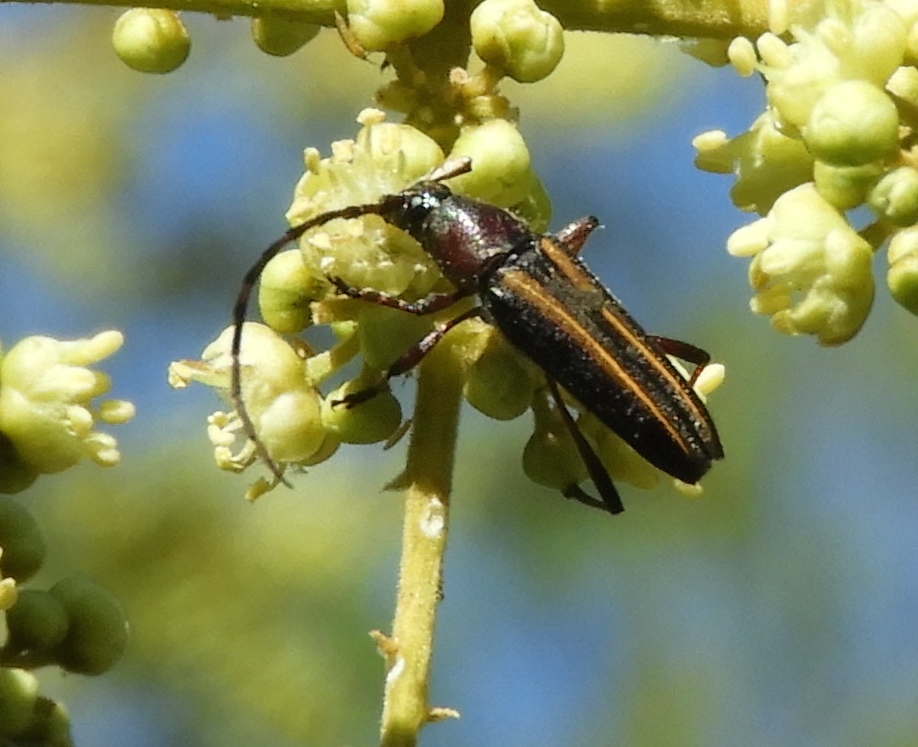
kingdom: Animalia
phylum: Arthropoda
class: Insecta
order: Coleoptera
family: Cerambycidae
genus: Sphaenothecus
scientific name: Sphaenothecus maccartyi
